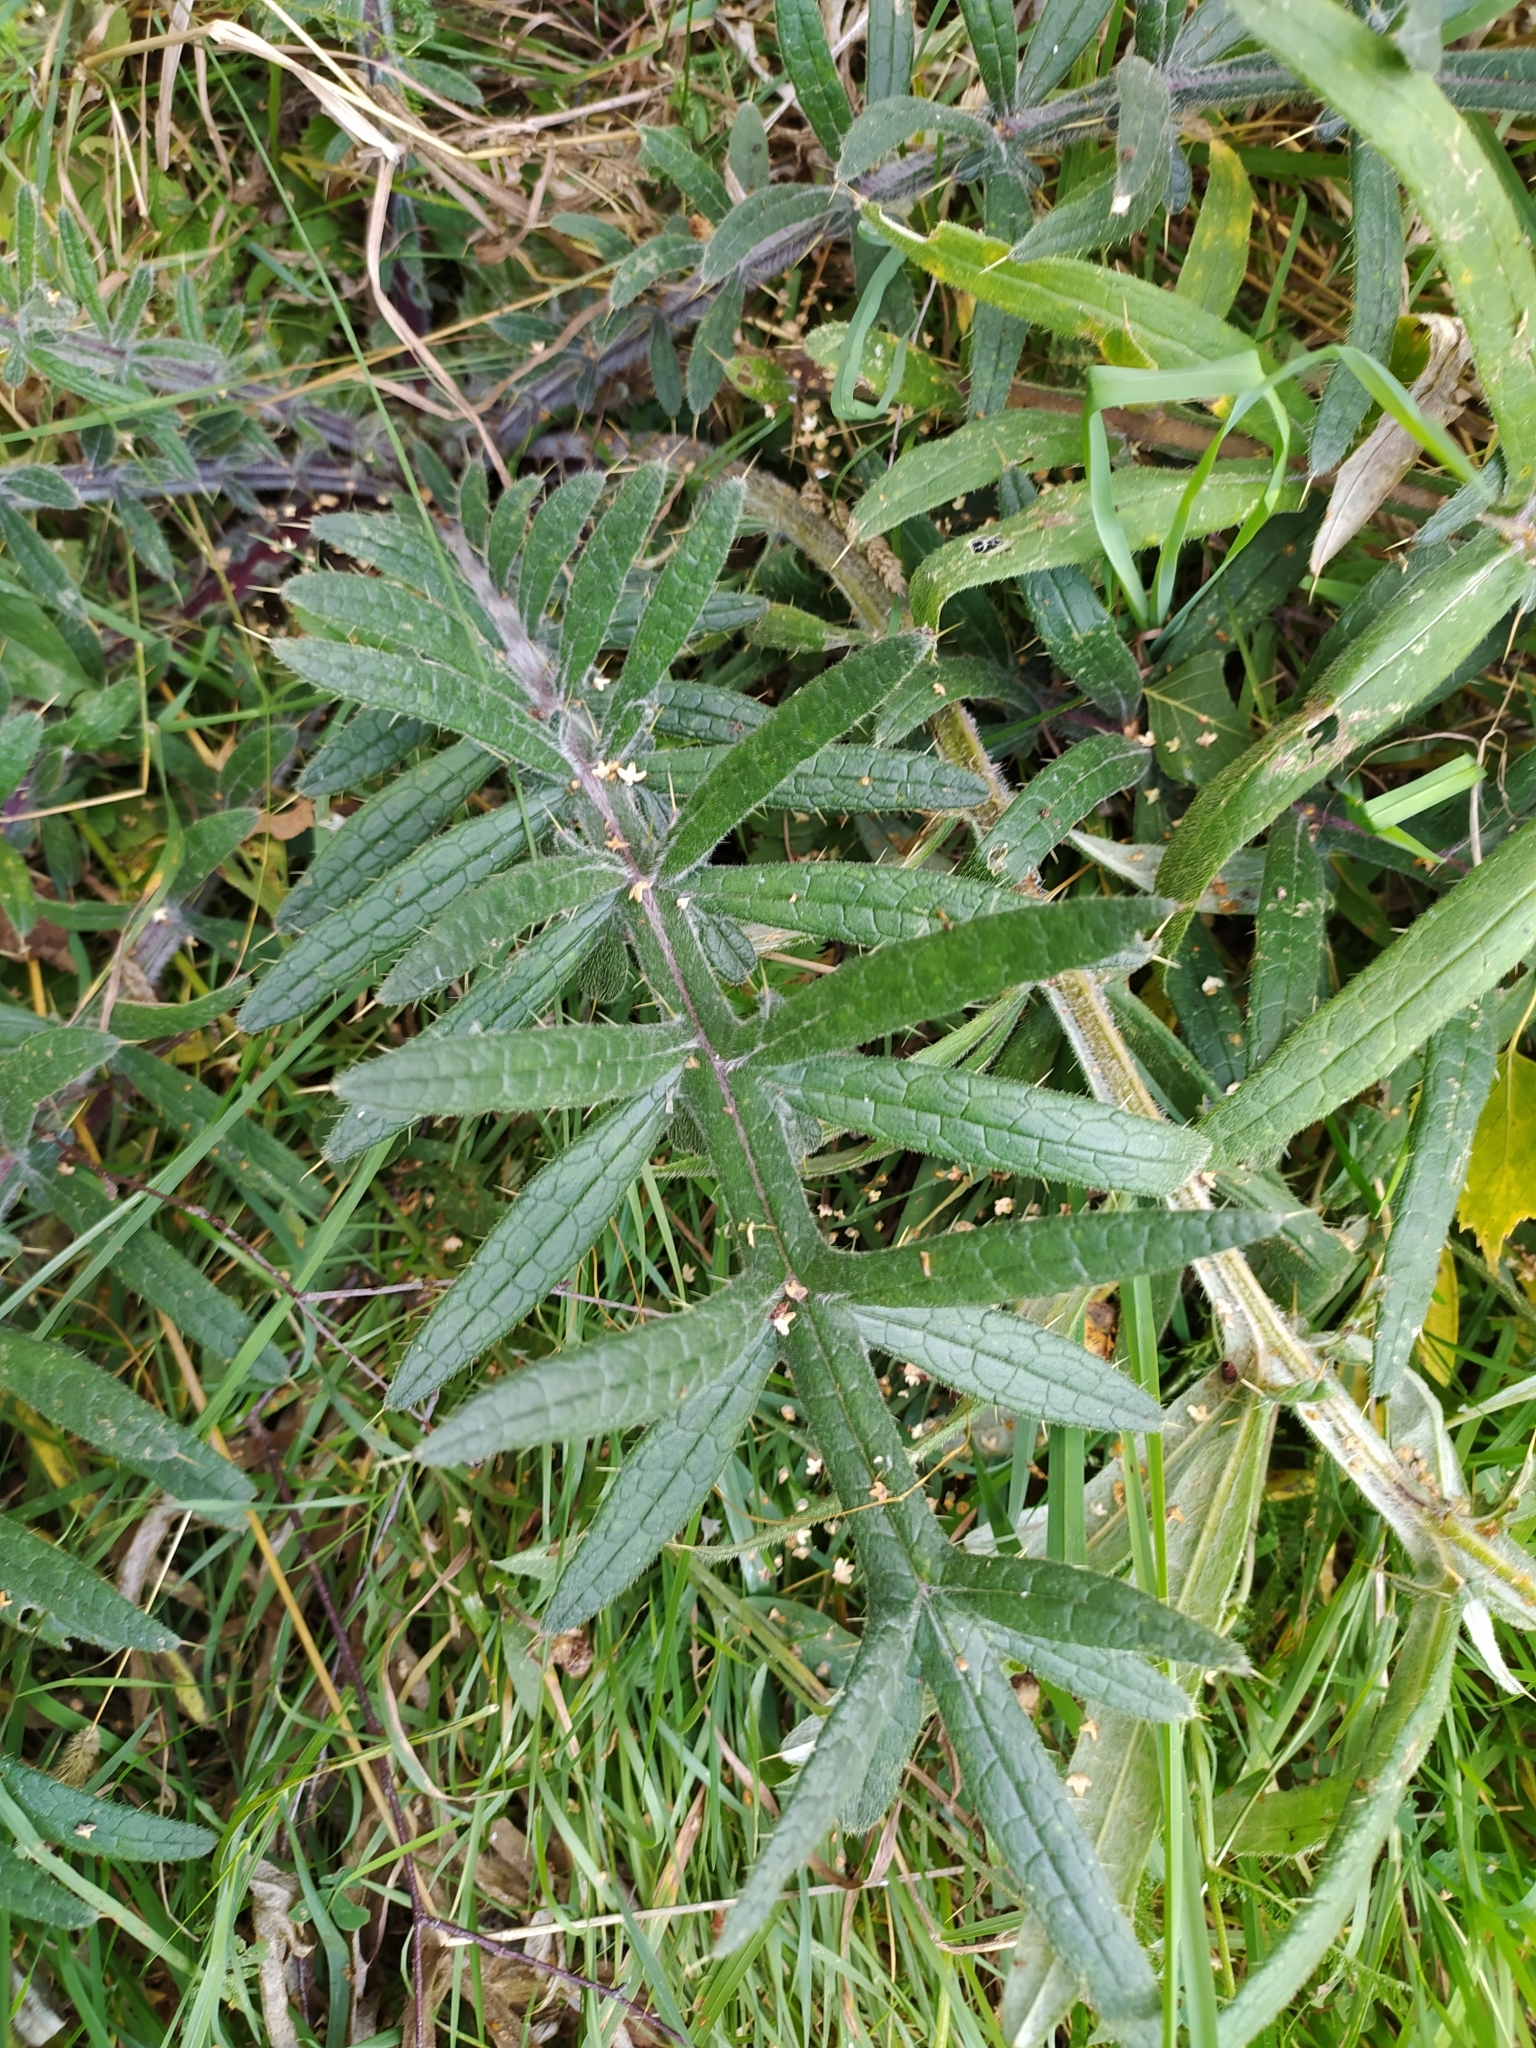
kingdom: Plantae
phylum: Tracheophyta
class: Magnoliopsida
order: Asterales
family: Asteraceae
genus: Lophiolepis
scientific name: Lophiolepis decussata
